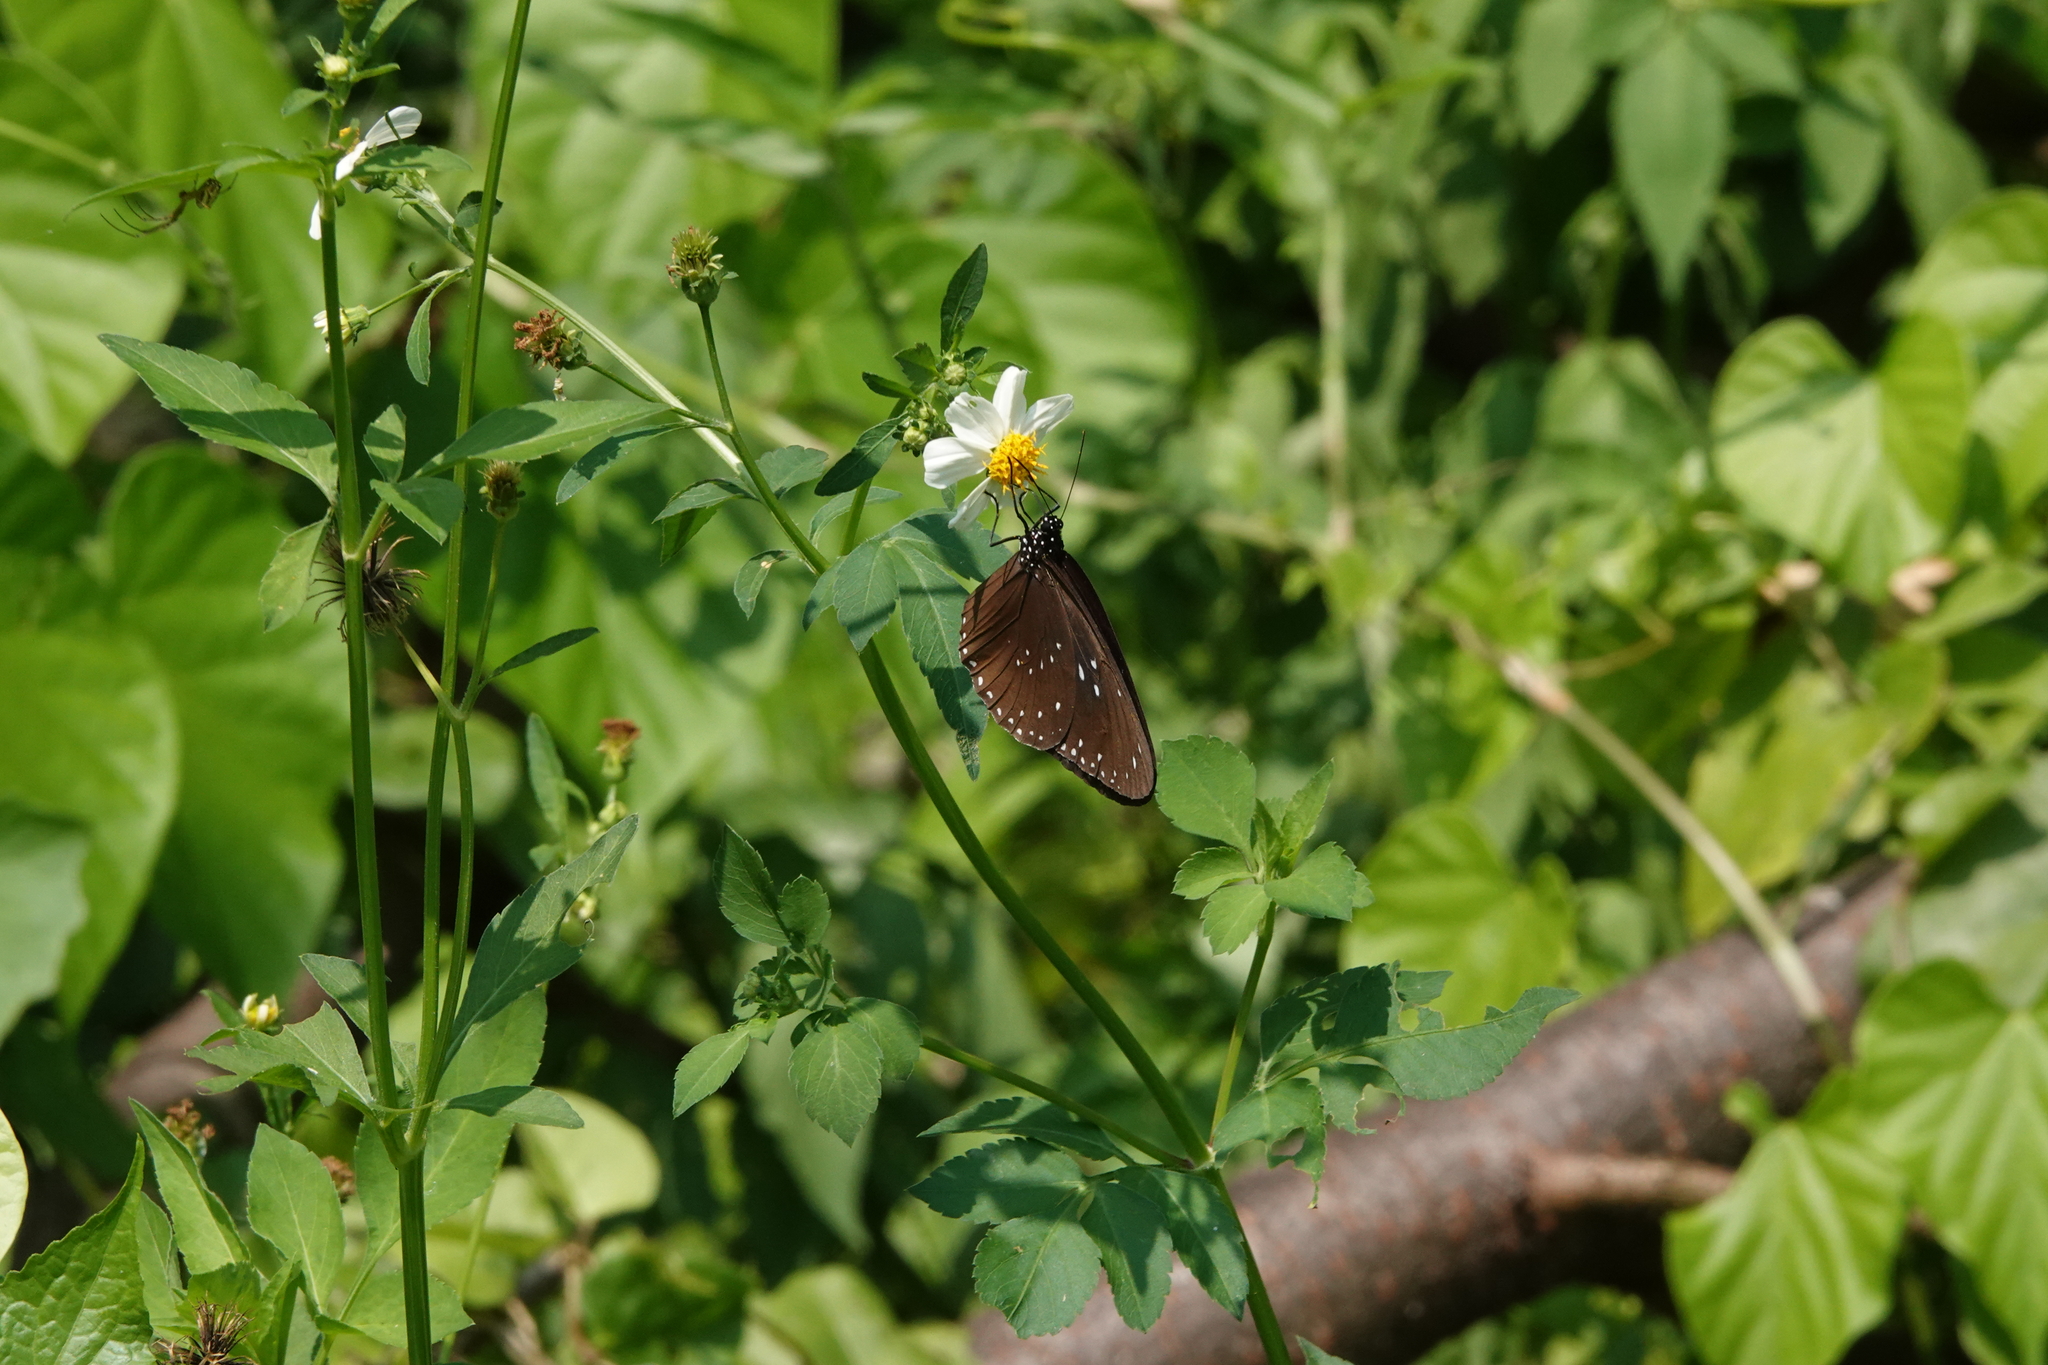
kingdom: Animalia
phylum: Arthropoda
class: Insecta
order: Lepidoptera
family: Nymphalidae
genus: Euploea
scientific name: Euploea sylvester
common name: Double-branded crow butterfly
